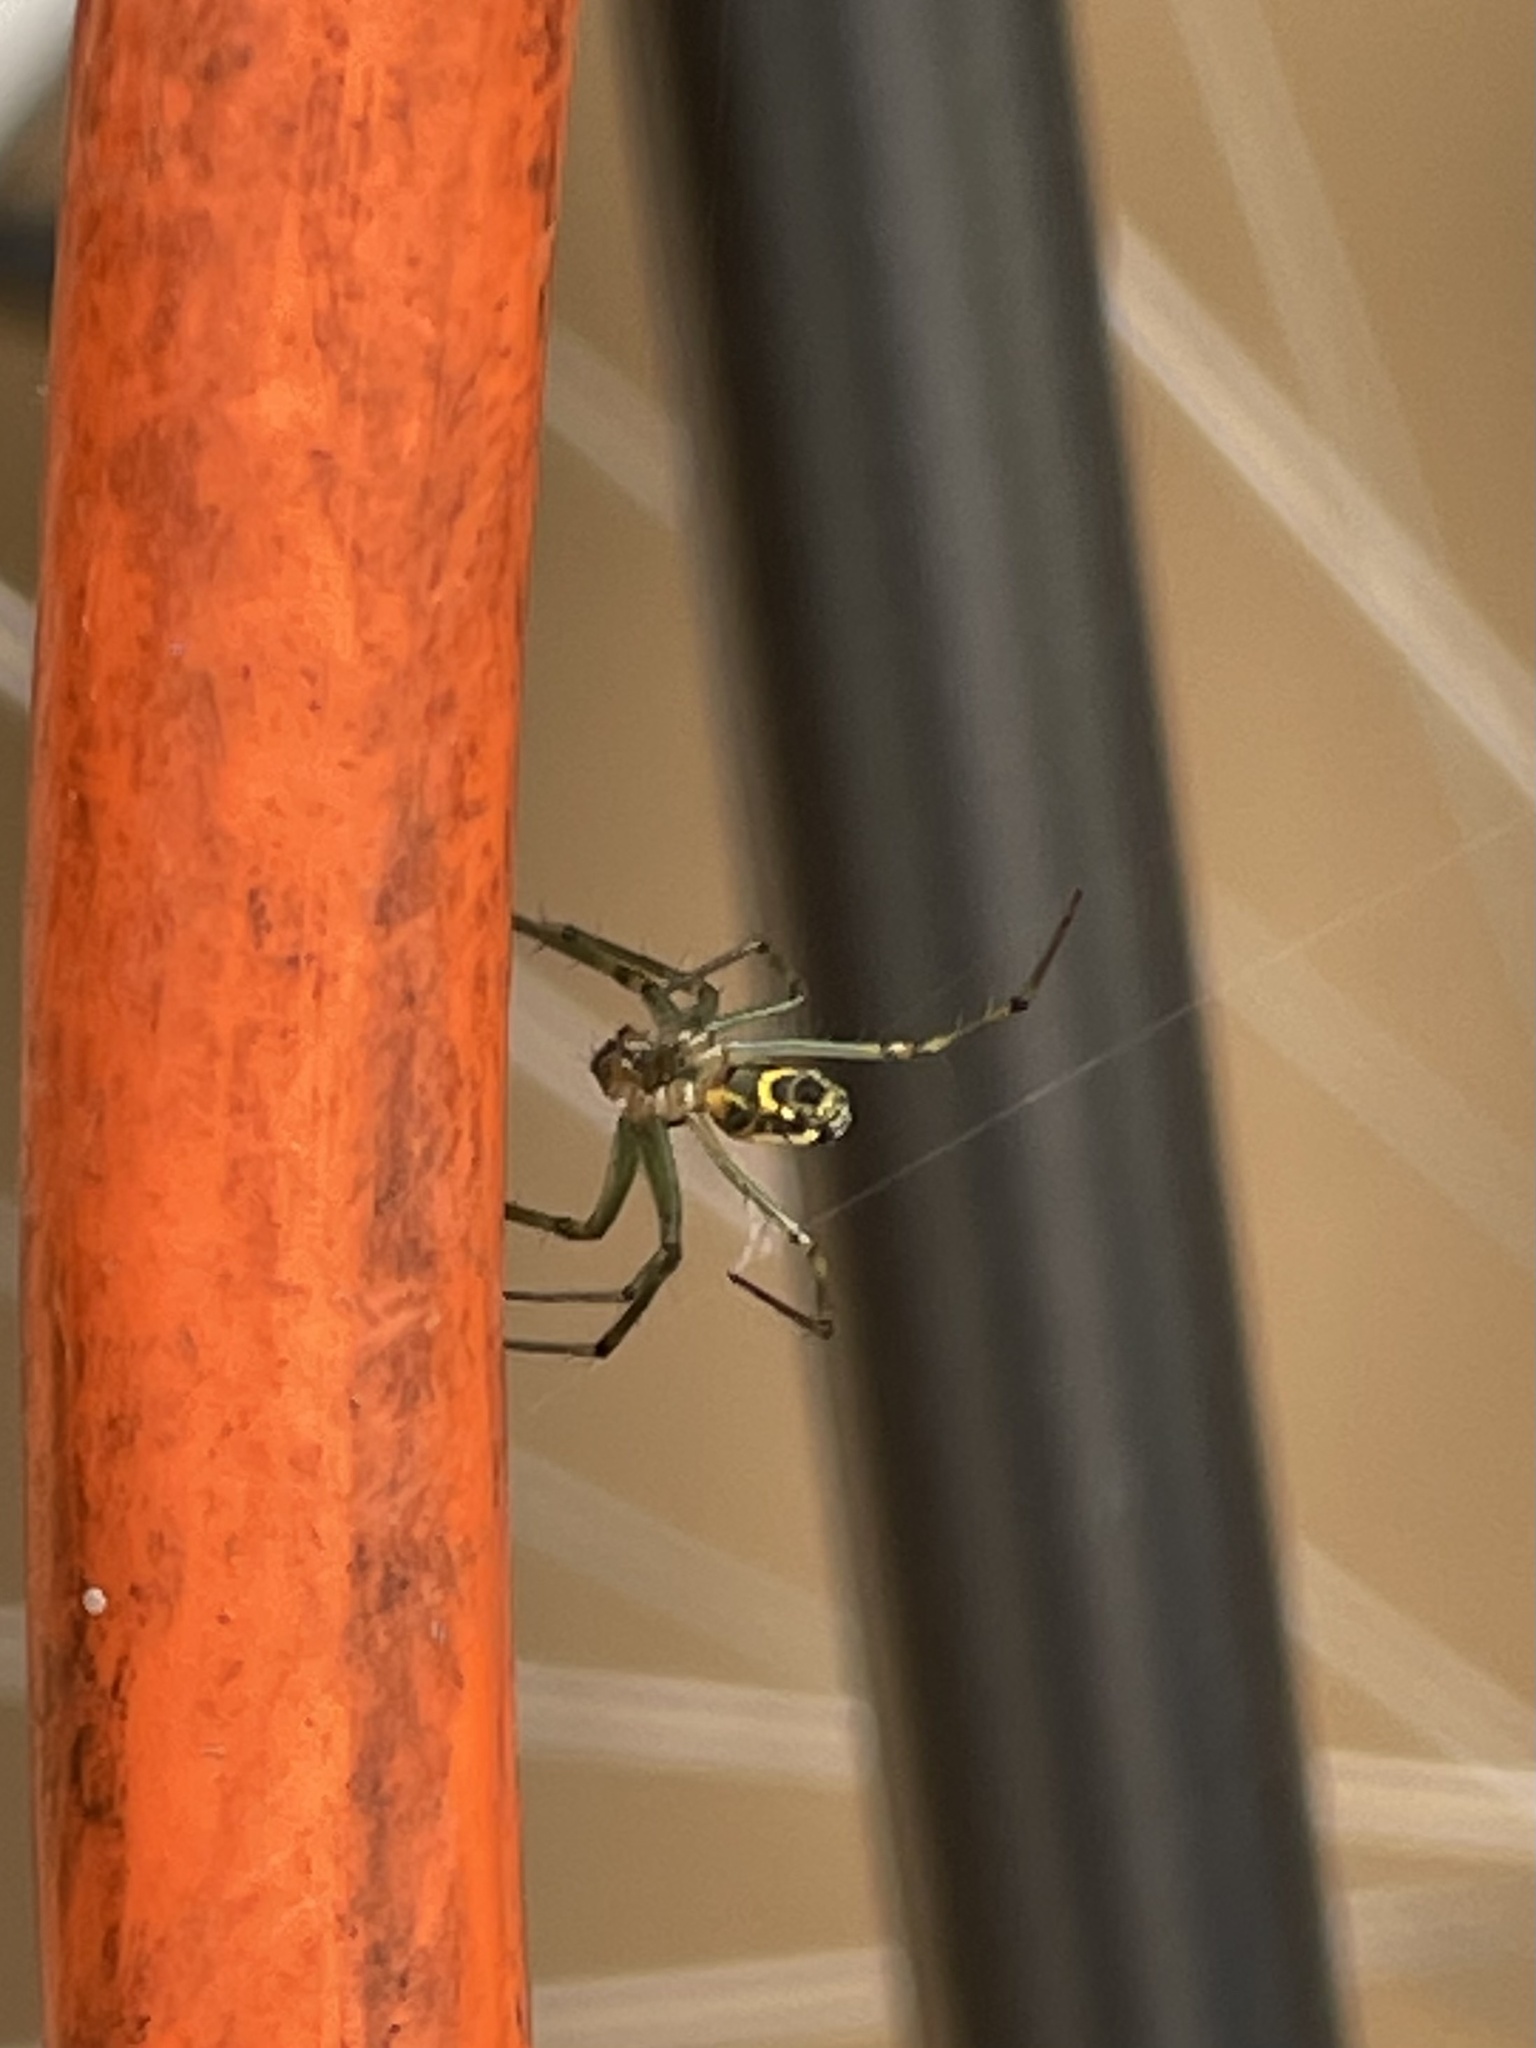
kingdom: Animalia
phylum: Arthropoda
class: Arachnida
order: Araneae
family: Tetragnathidae
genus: Leucauge
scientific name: Leucauge venusta
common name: Longjawed orb weavers
